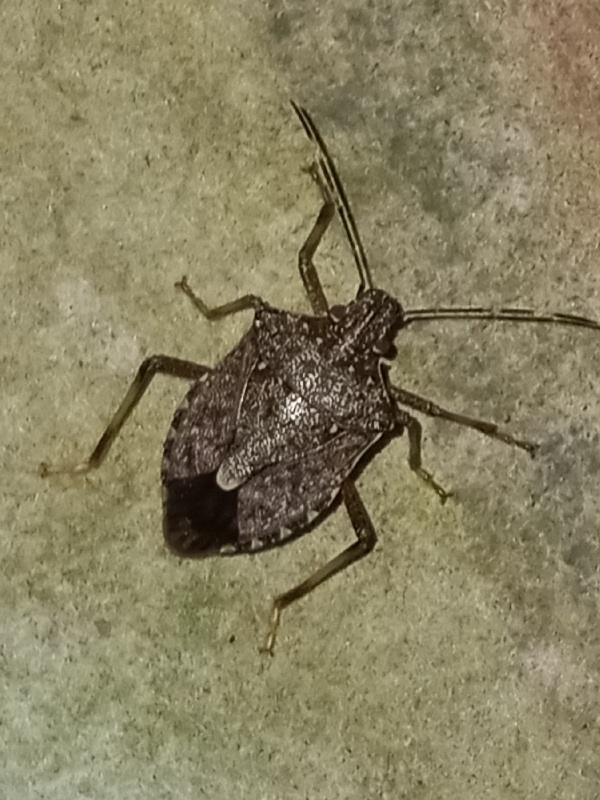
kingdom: Animalia
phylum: Arthropoda
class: Insecta
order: Hemiptera
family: Pentatomidae
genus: Halyomorpha
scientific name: Halyomorpha halys
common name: Brown marmorated stink bug
